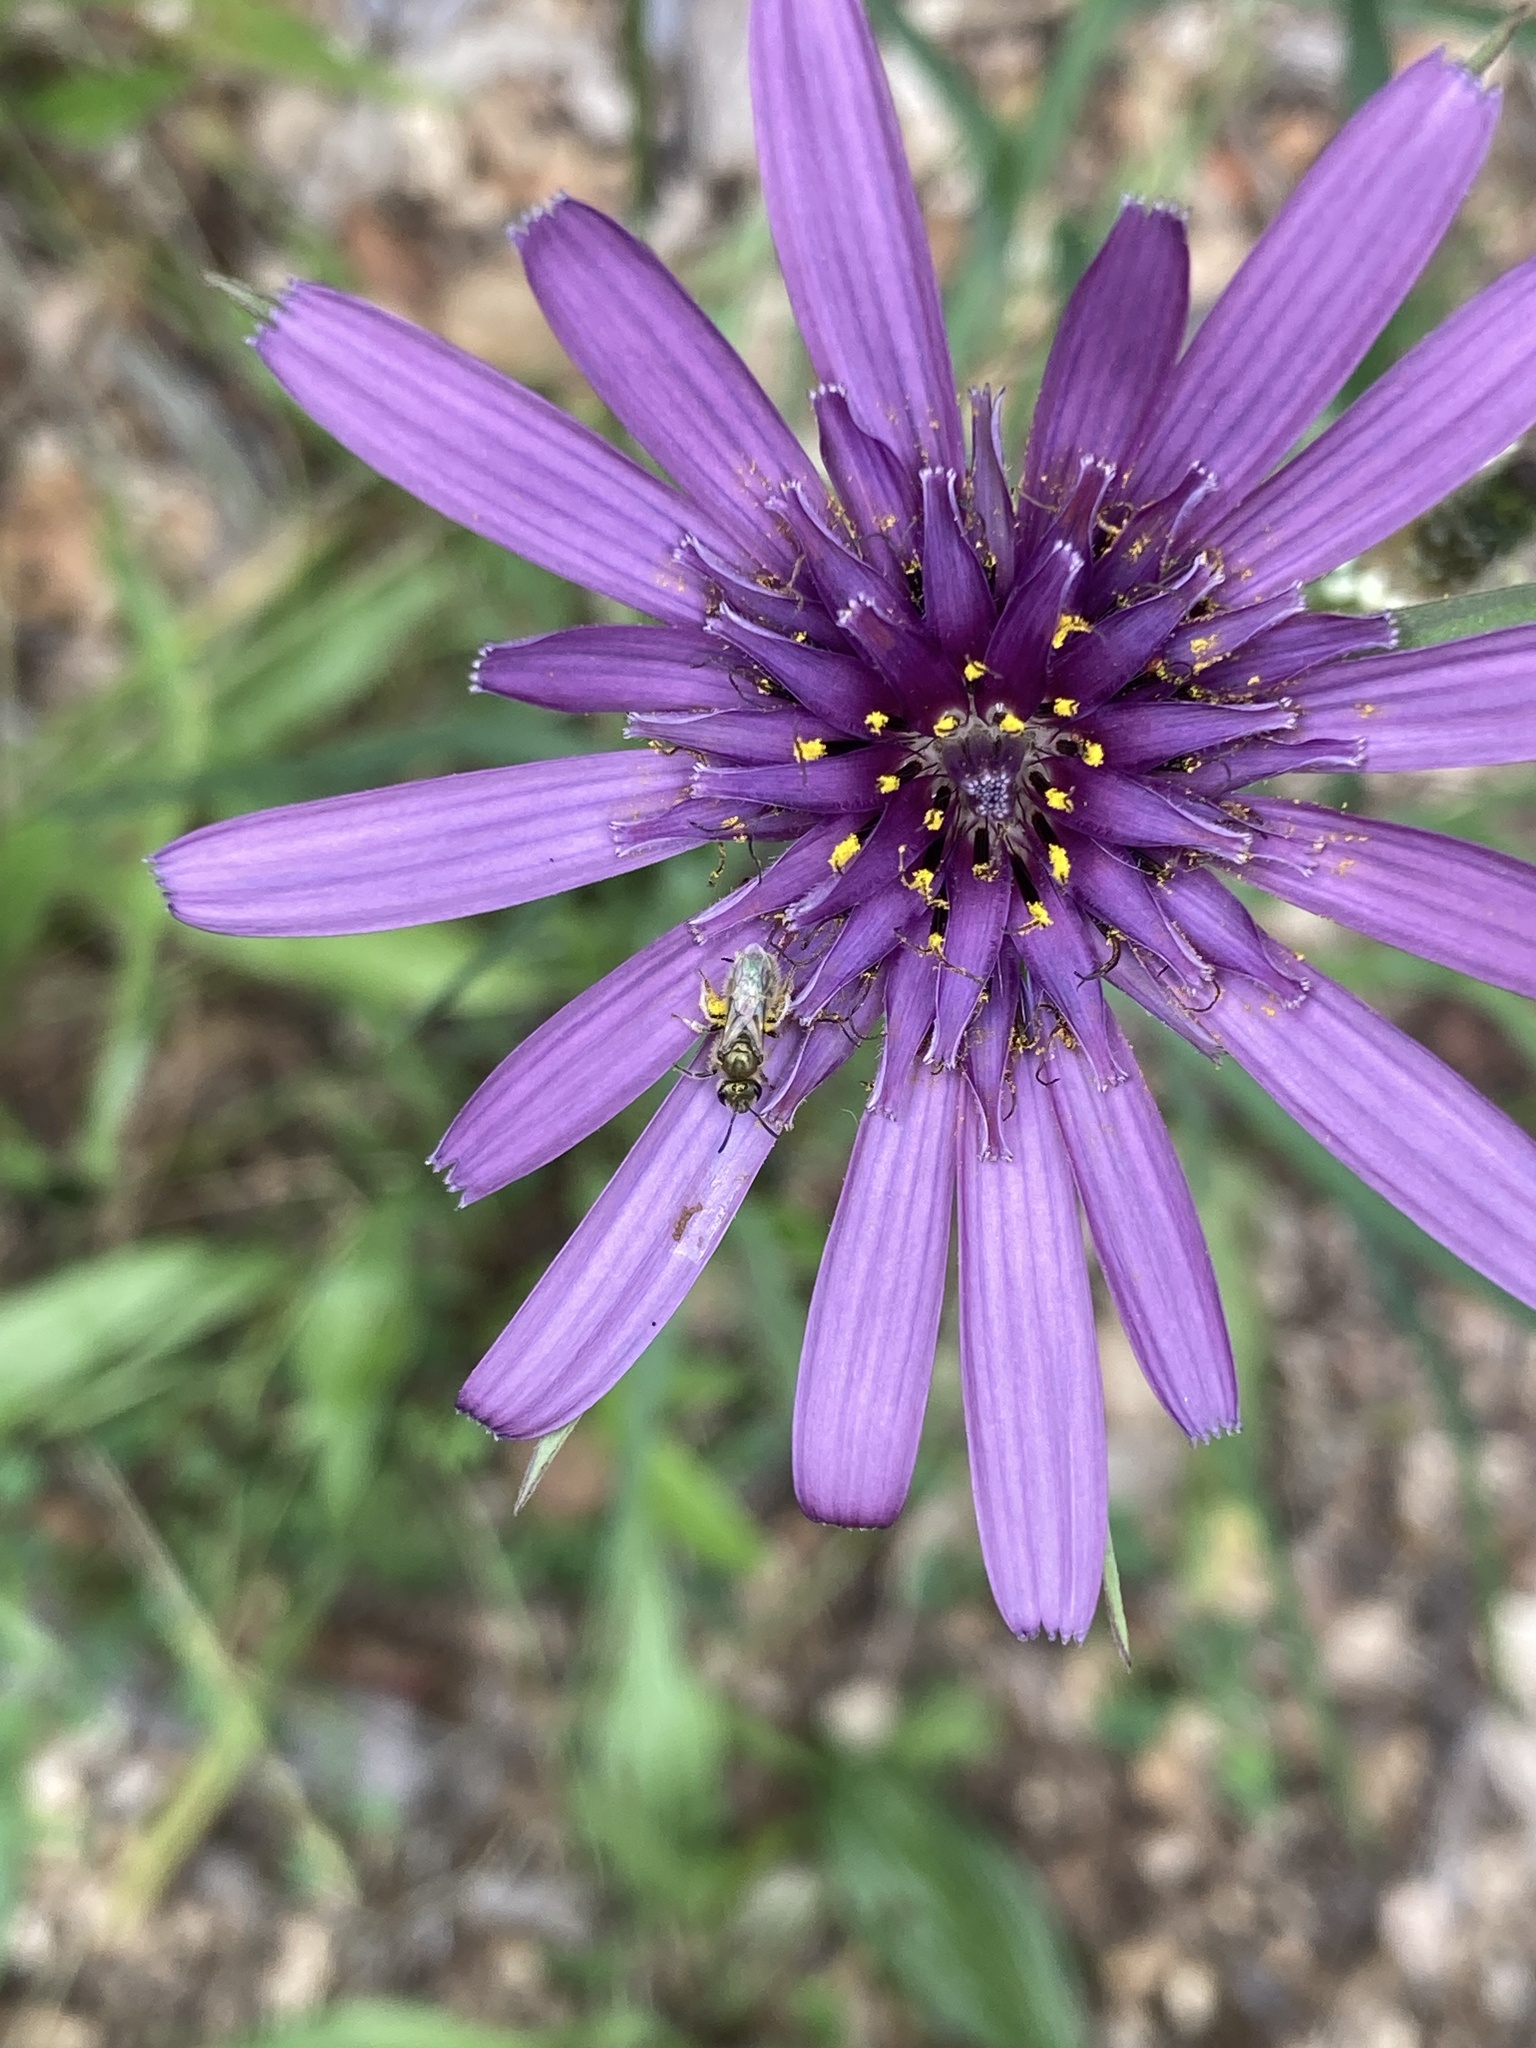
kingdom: Plantae
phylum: Tracheophyta
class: Magnoliopsida
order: Asterales
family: Asteraceae
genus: Tragopogon
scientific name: Tragopogon porrifolius
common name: Salsify
